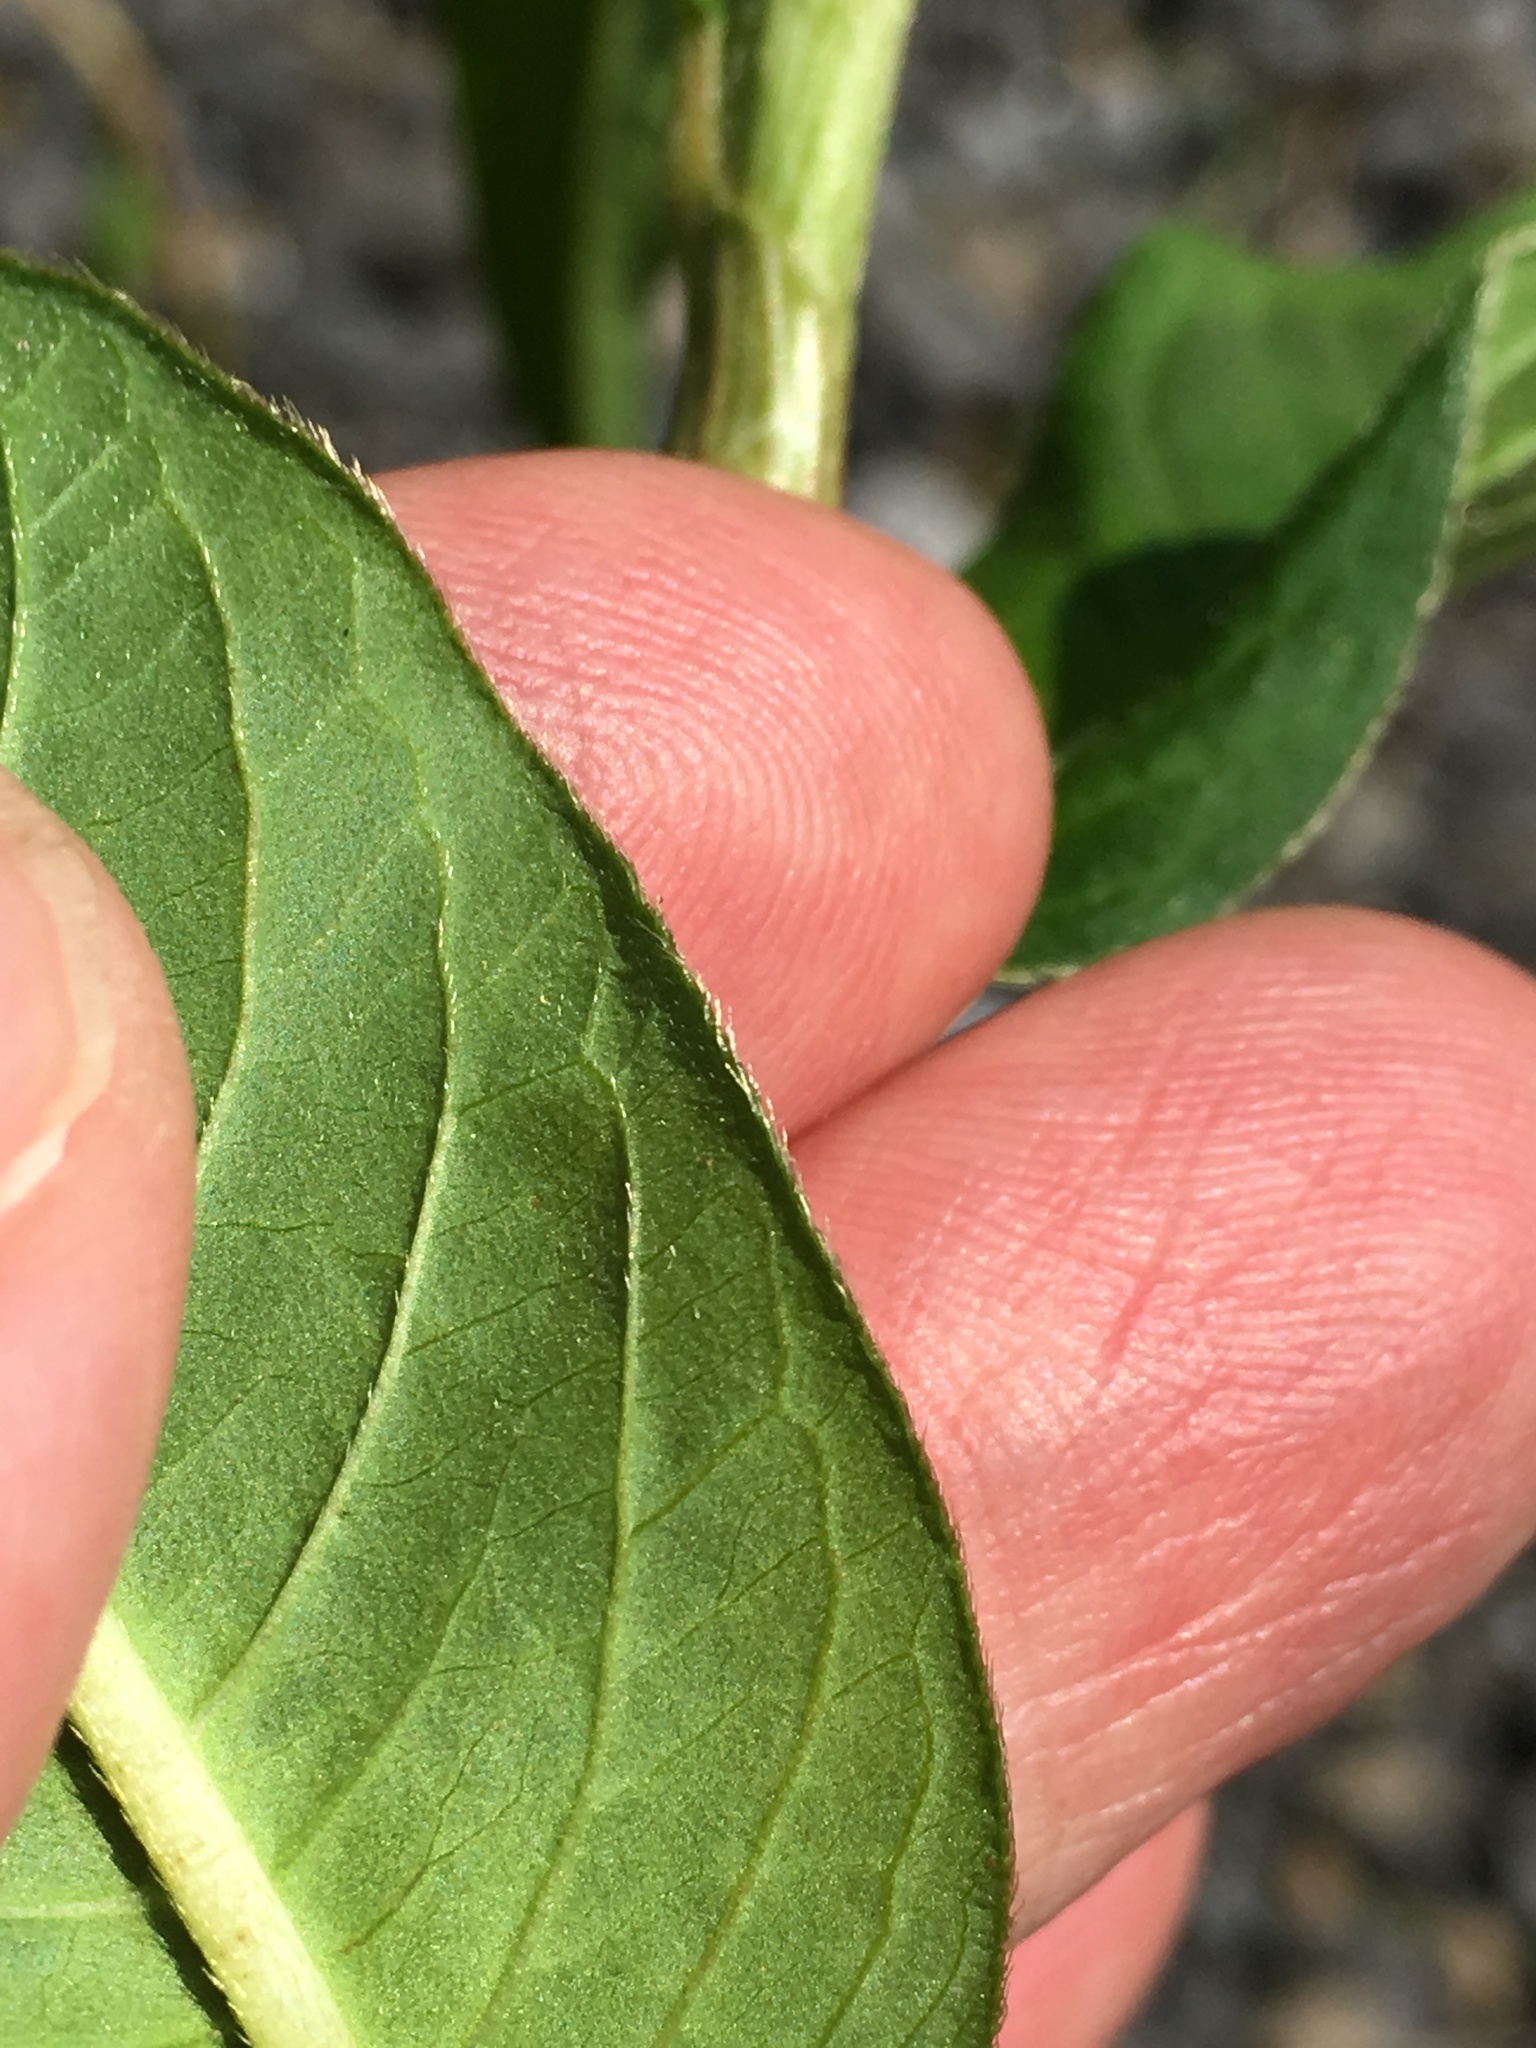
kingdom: Plantae
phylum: Tracheophyta
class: Magnoliopsida
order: Caryophyllales
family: Polygonaceae
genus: Persicaria
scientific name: Persicaria extremiorientalis
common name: Far-eastern smartweed
